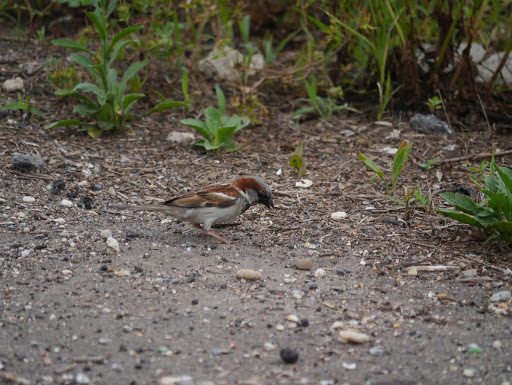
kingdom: Animalia
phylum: Chordata
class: Aves
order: Passeriformes
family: Passeridae
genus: Passer
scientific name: Passer domesticus
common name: House sparrow
